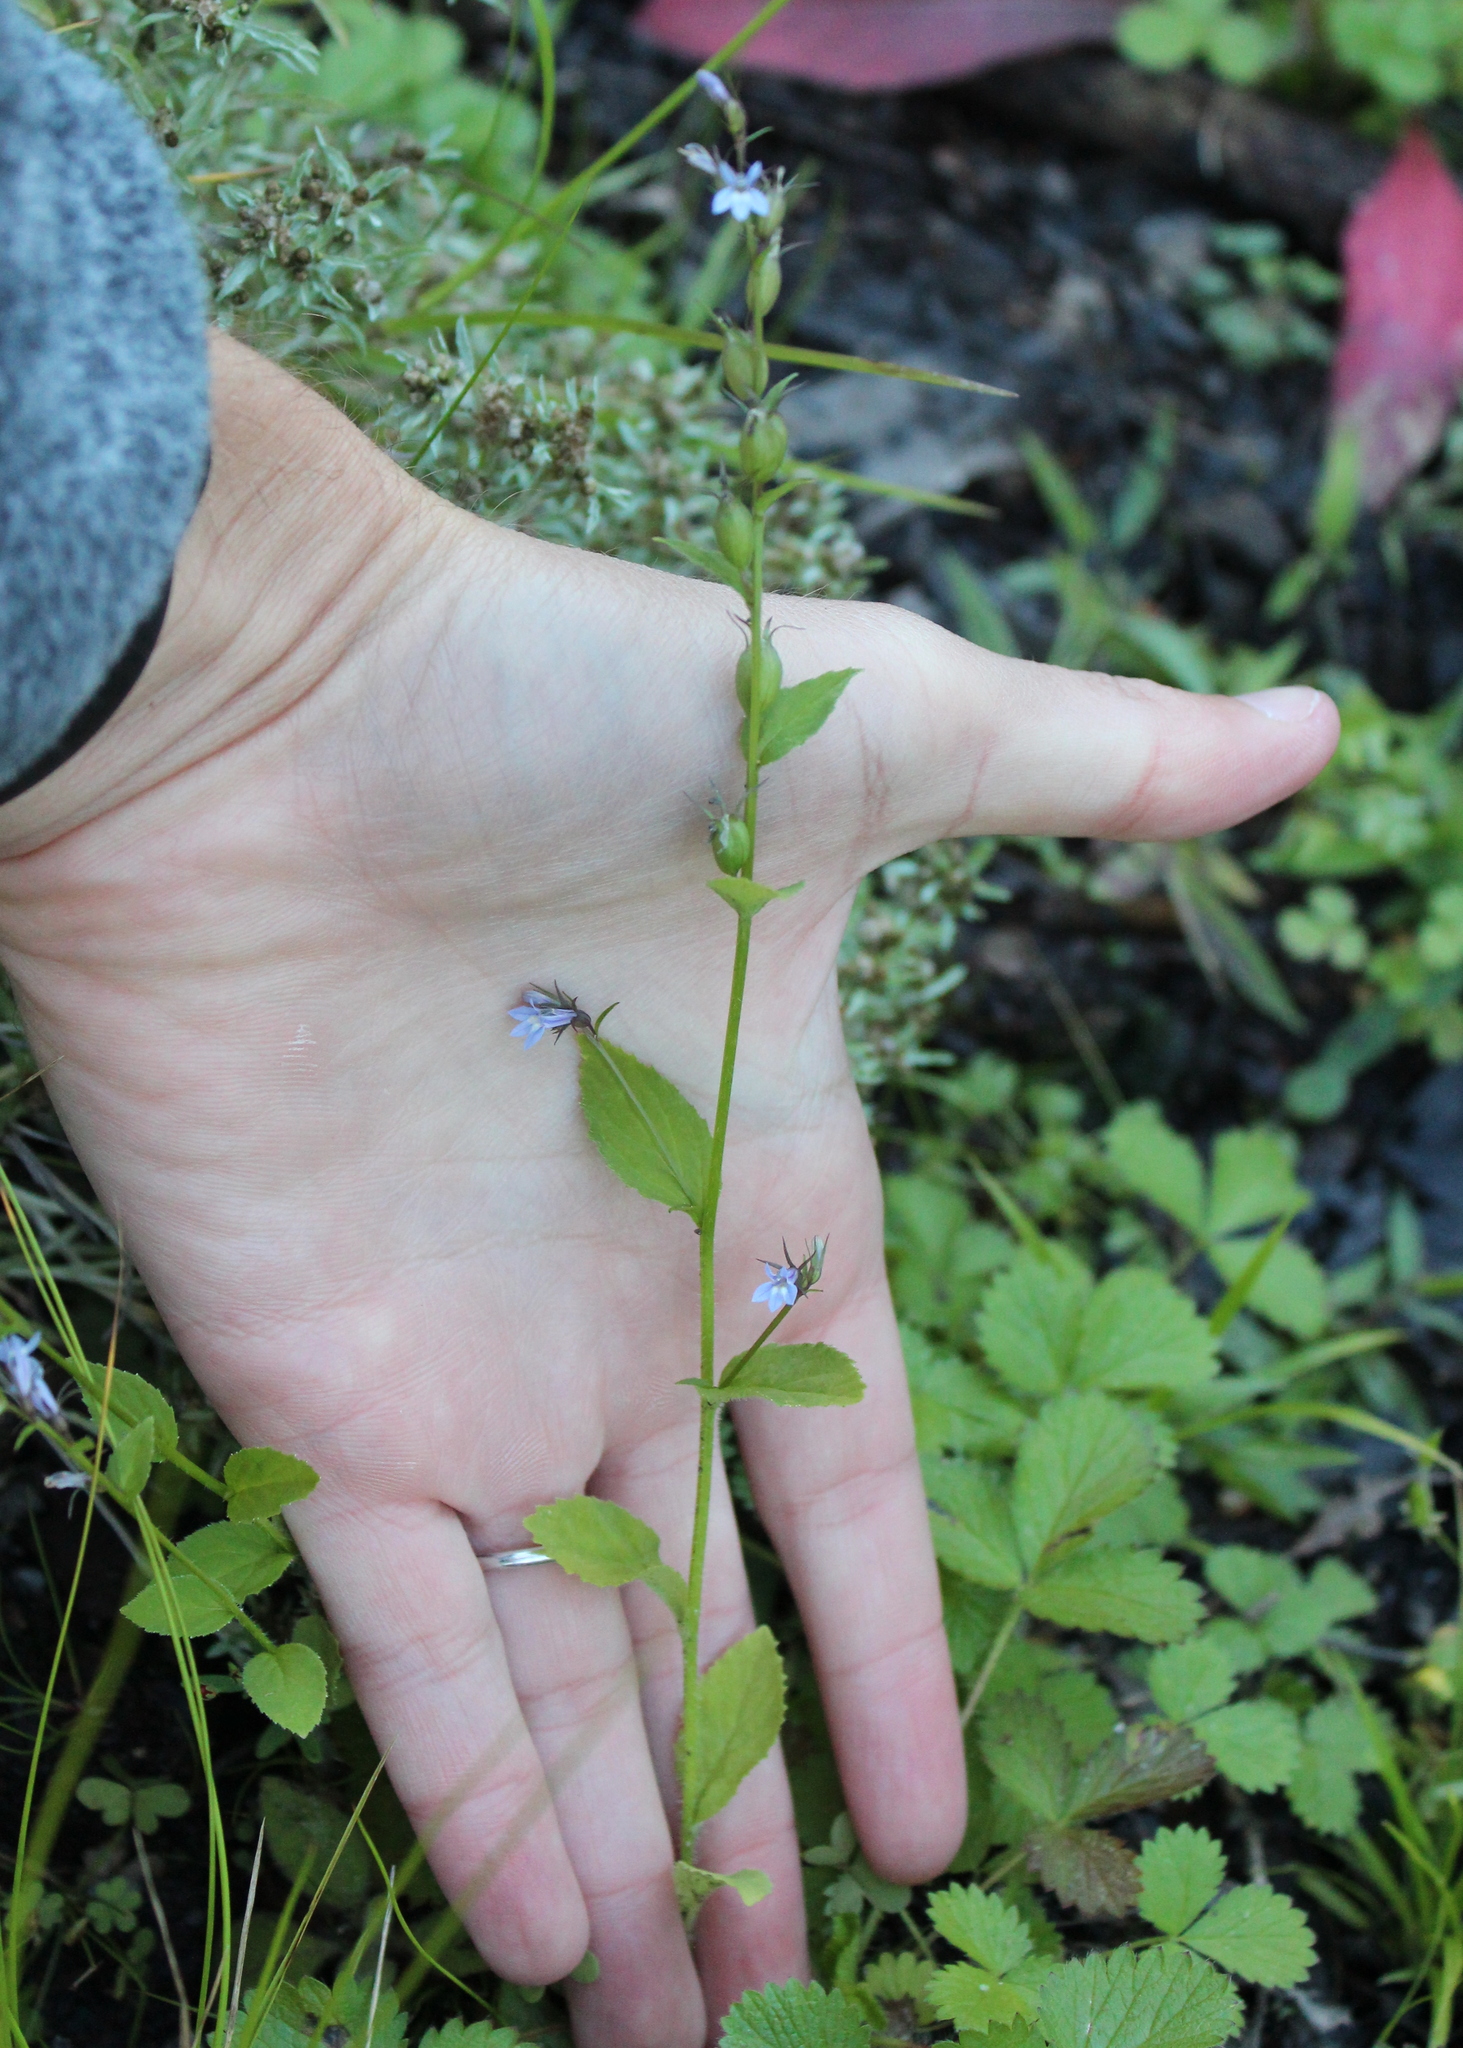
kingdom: Plantae
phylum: Tracheophyta
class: Magnoliopsida
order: Asterales
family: Campanulaceae
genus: Lobelia
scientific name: Lobelia inflata
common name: Indian tobacco
